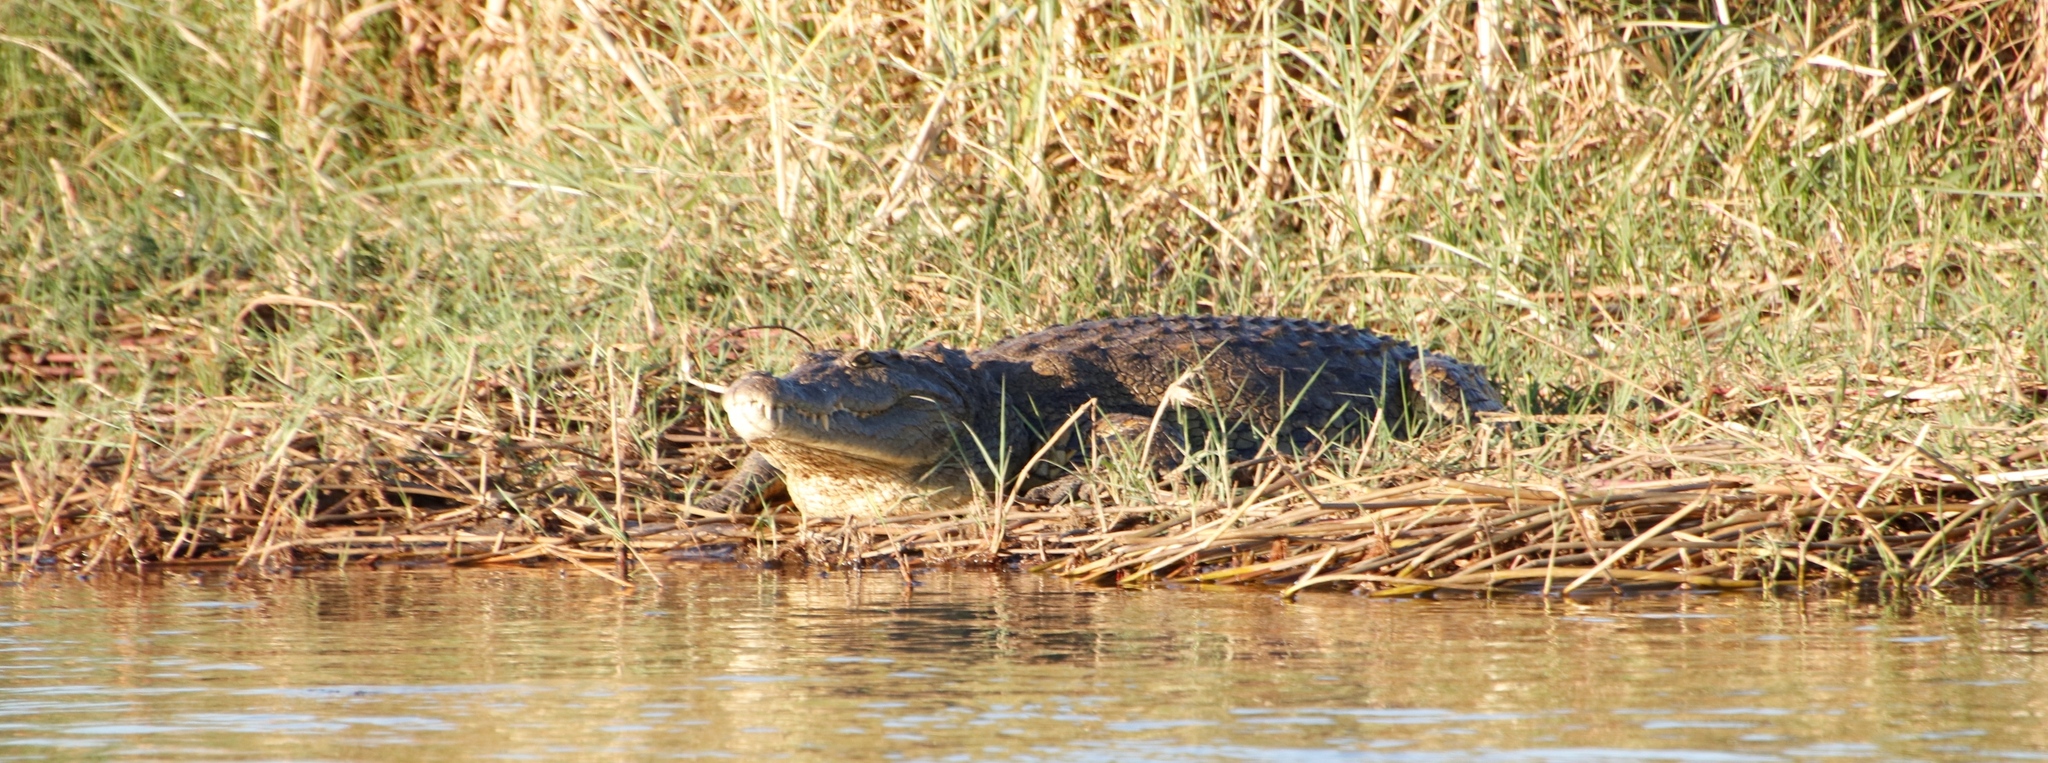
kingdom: Animalia
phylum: Chordata
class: Crocodylia
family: Crocodylidae
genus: Crocodylus
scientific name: Crocodylus niloticus
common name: Nile crocodile
